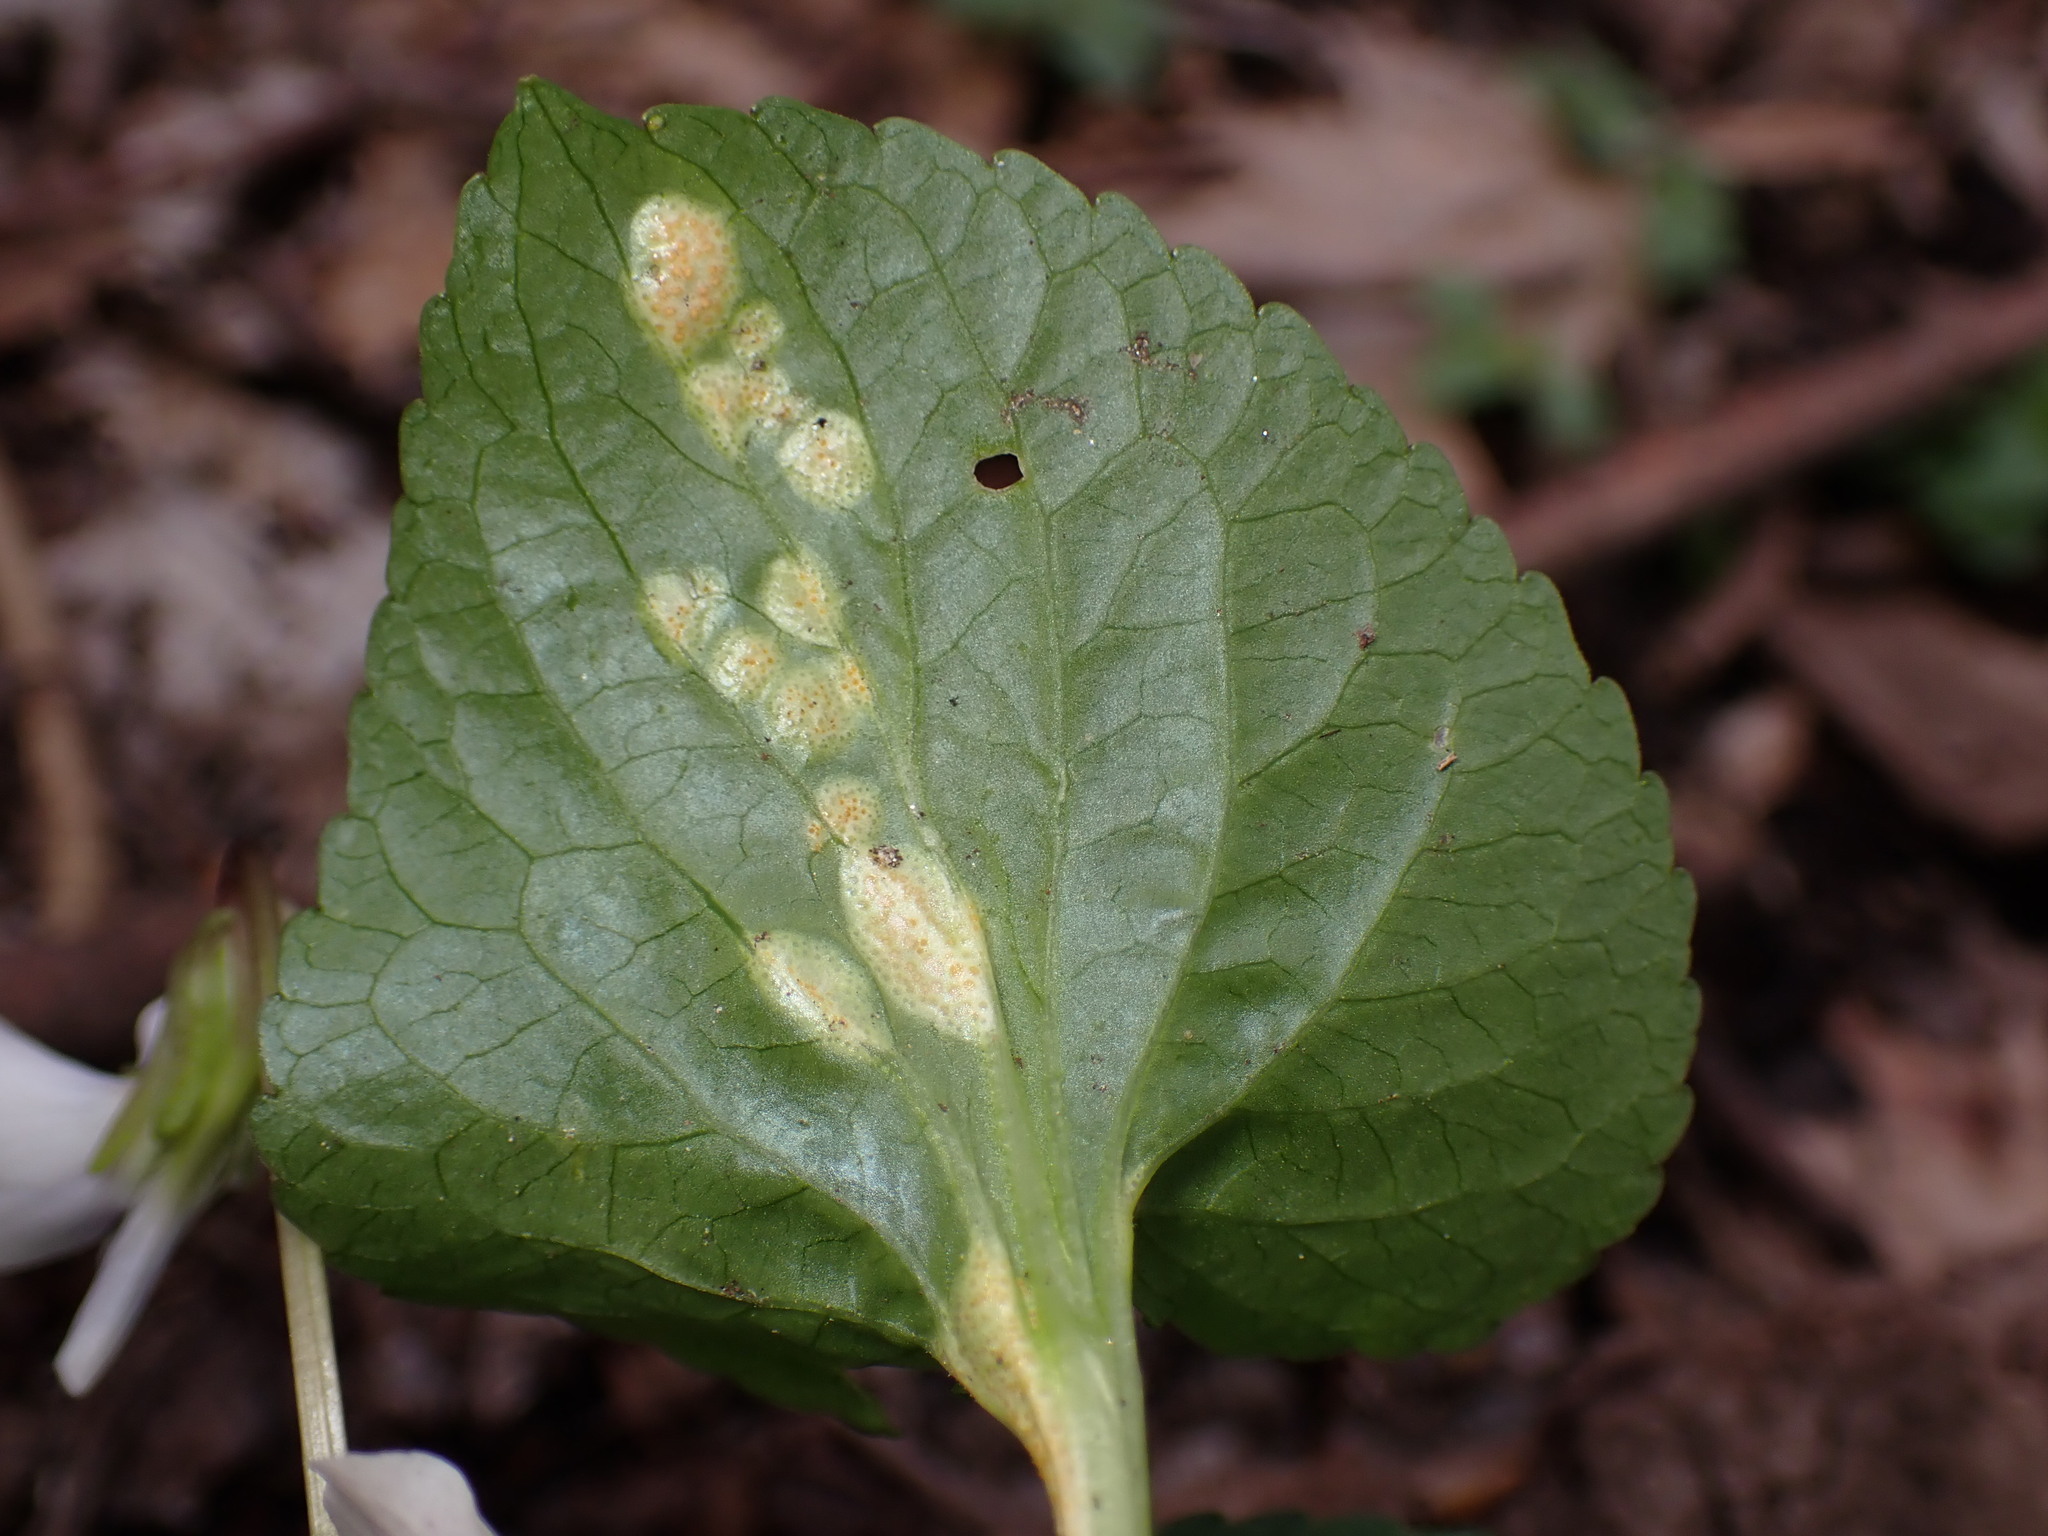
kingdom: Fungi
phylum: Basidiomycota
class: Pucciniomycetes
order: Pucciniales
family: Pucciniaceae
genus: Puccinia
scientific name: Puccinia violae
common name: Violet rust
